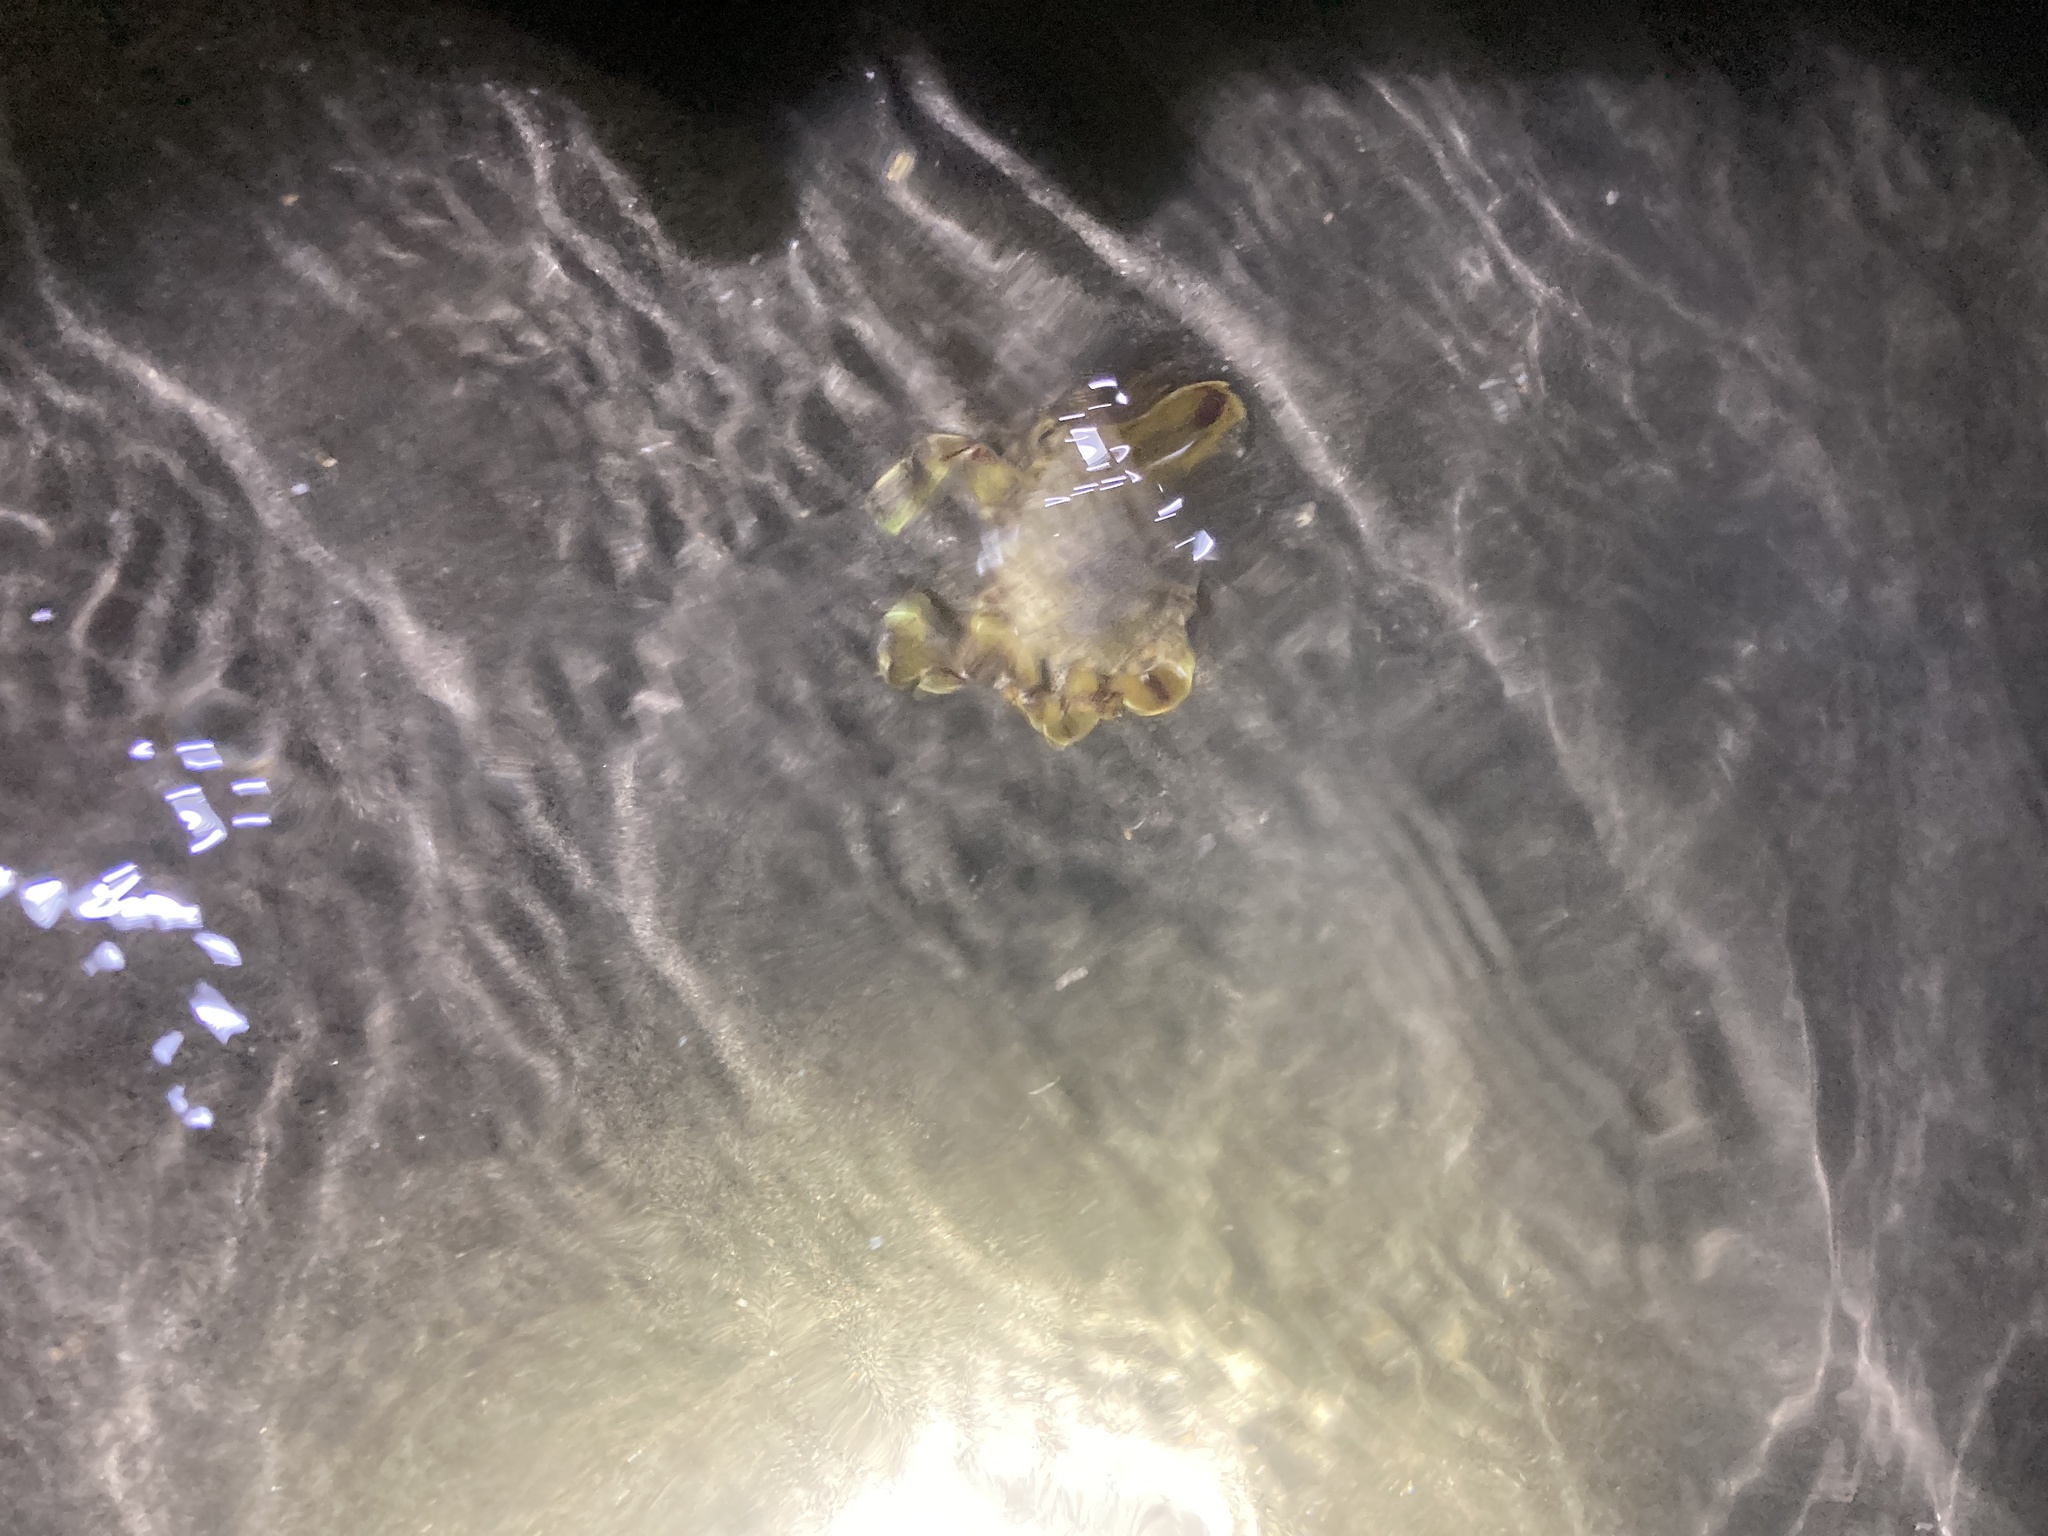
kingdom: Animalia
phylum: Arthropoda
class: Malacostraca
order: Decapoda
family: Matutidae
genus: Matuta
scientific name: Matuta victor
